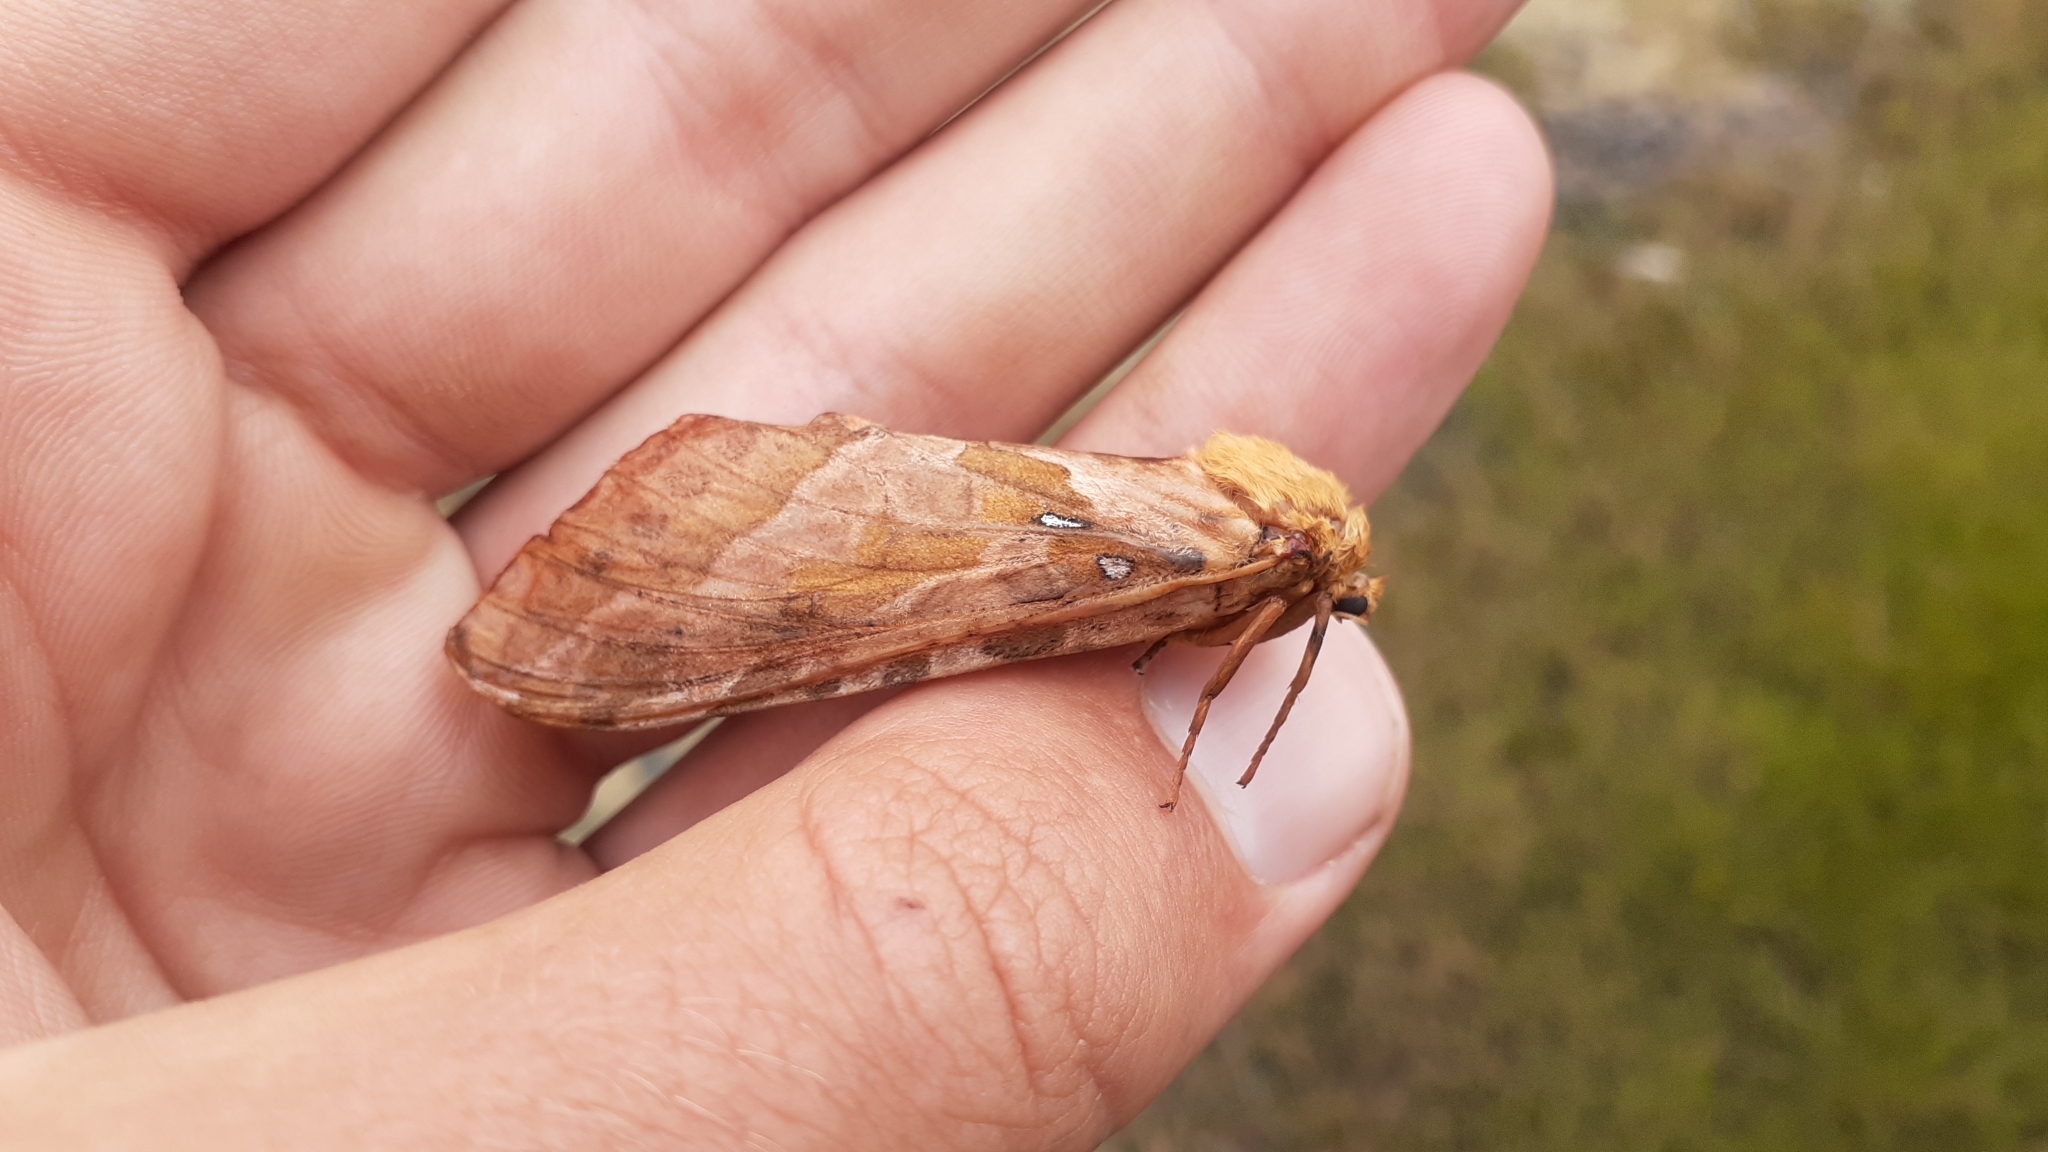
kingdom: Animalia
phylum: Arthropoda
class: Insecta
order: Lepidoptera
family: Hepialidae
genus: Sthenopis
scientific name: Sthenopis purpurascens
